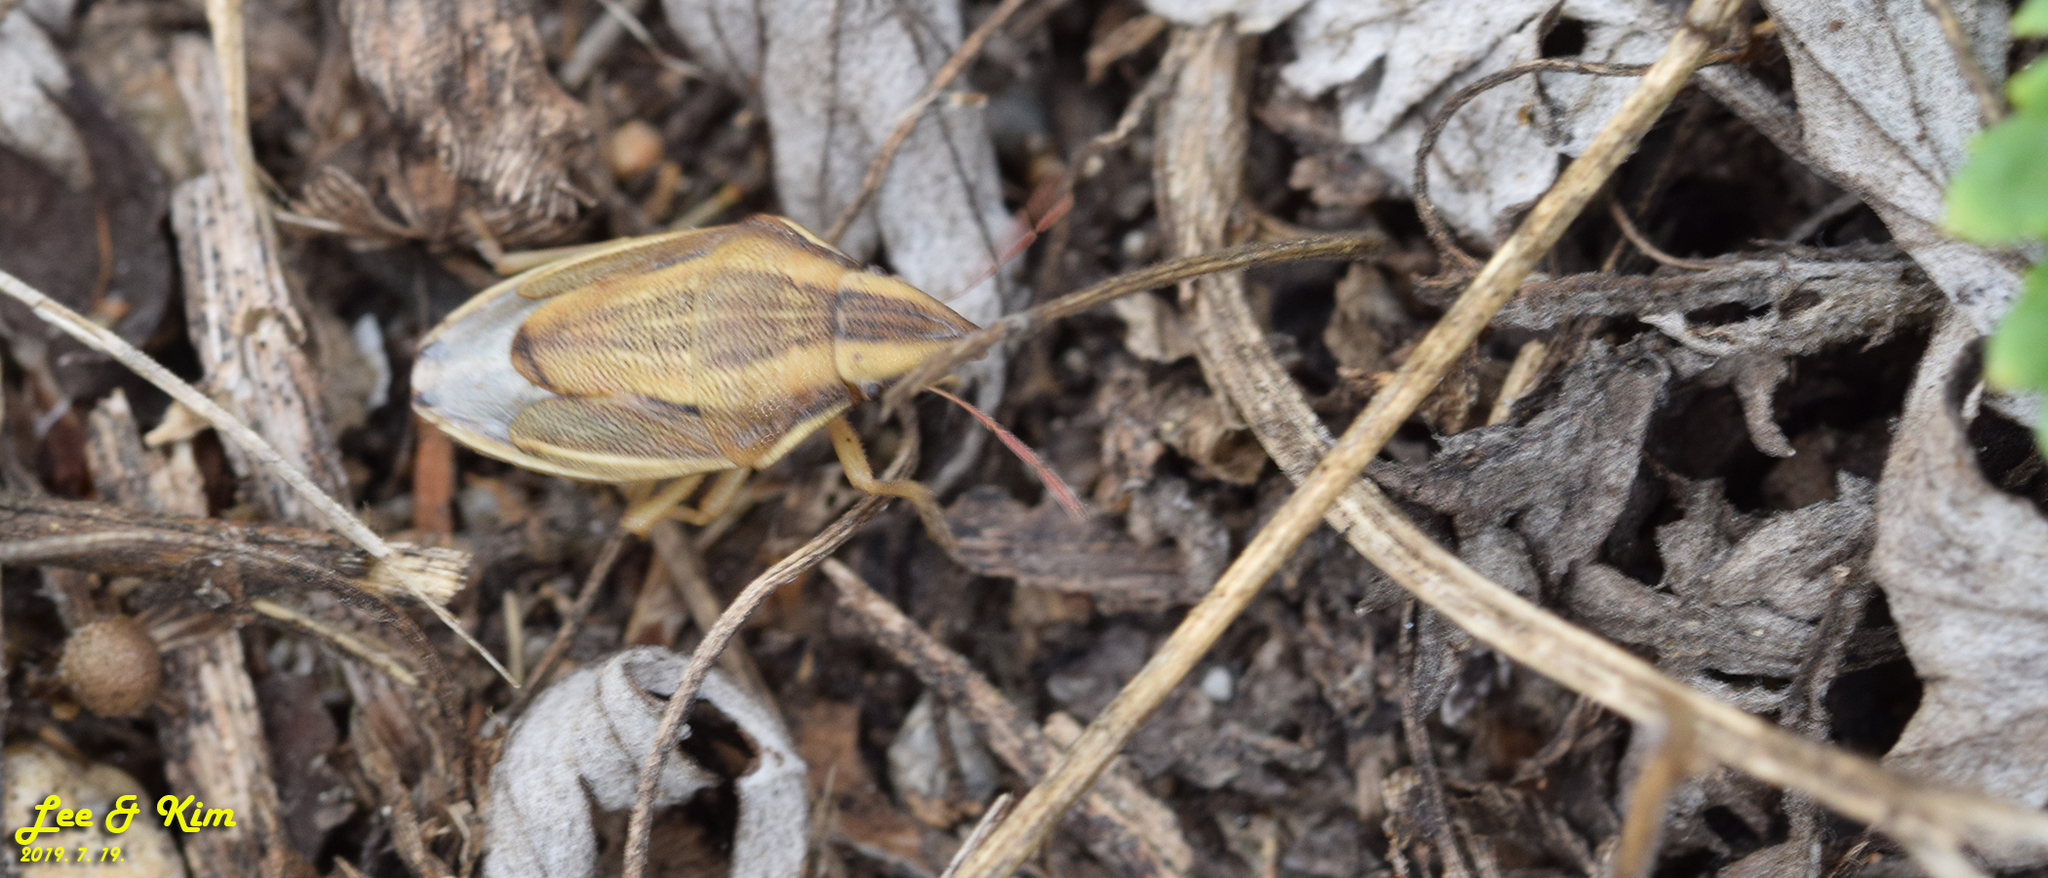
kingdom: Animalia
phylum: Arthropoda
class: Insecta
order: Hemiptera
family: Pentatomidae
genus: Aelia
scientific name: Aelia
